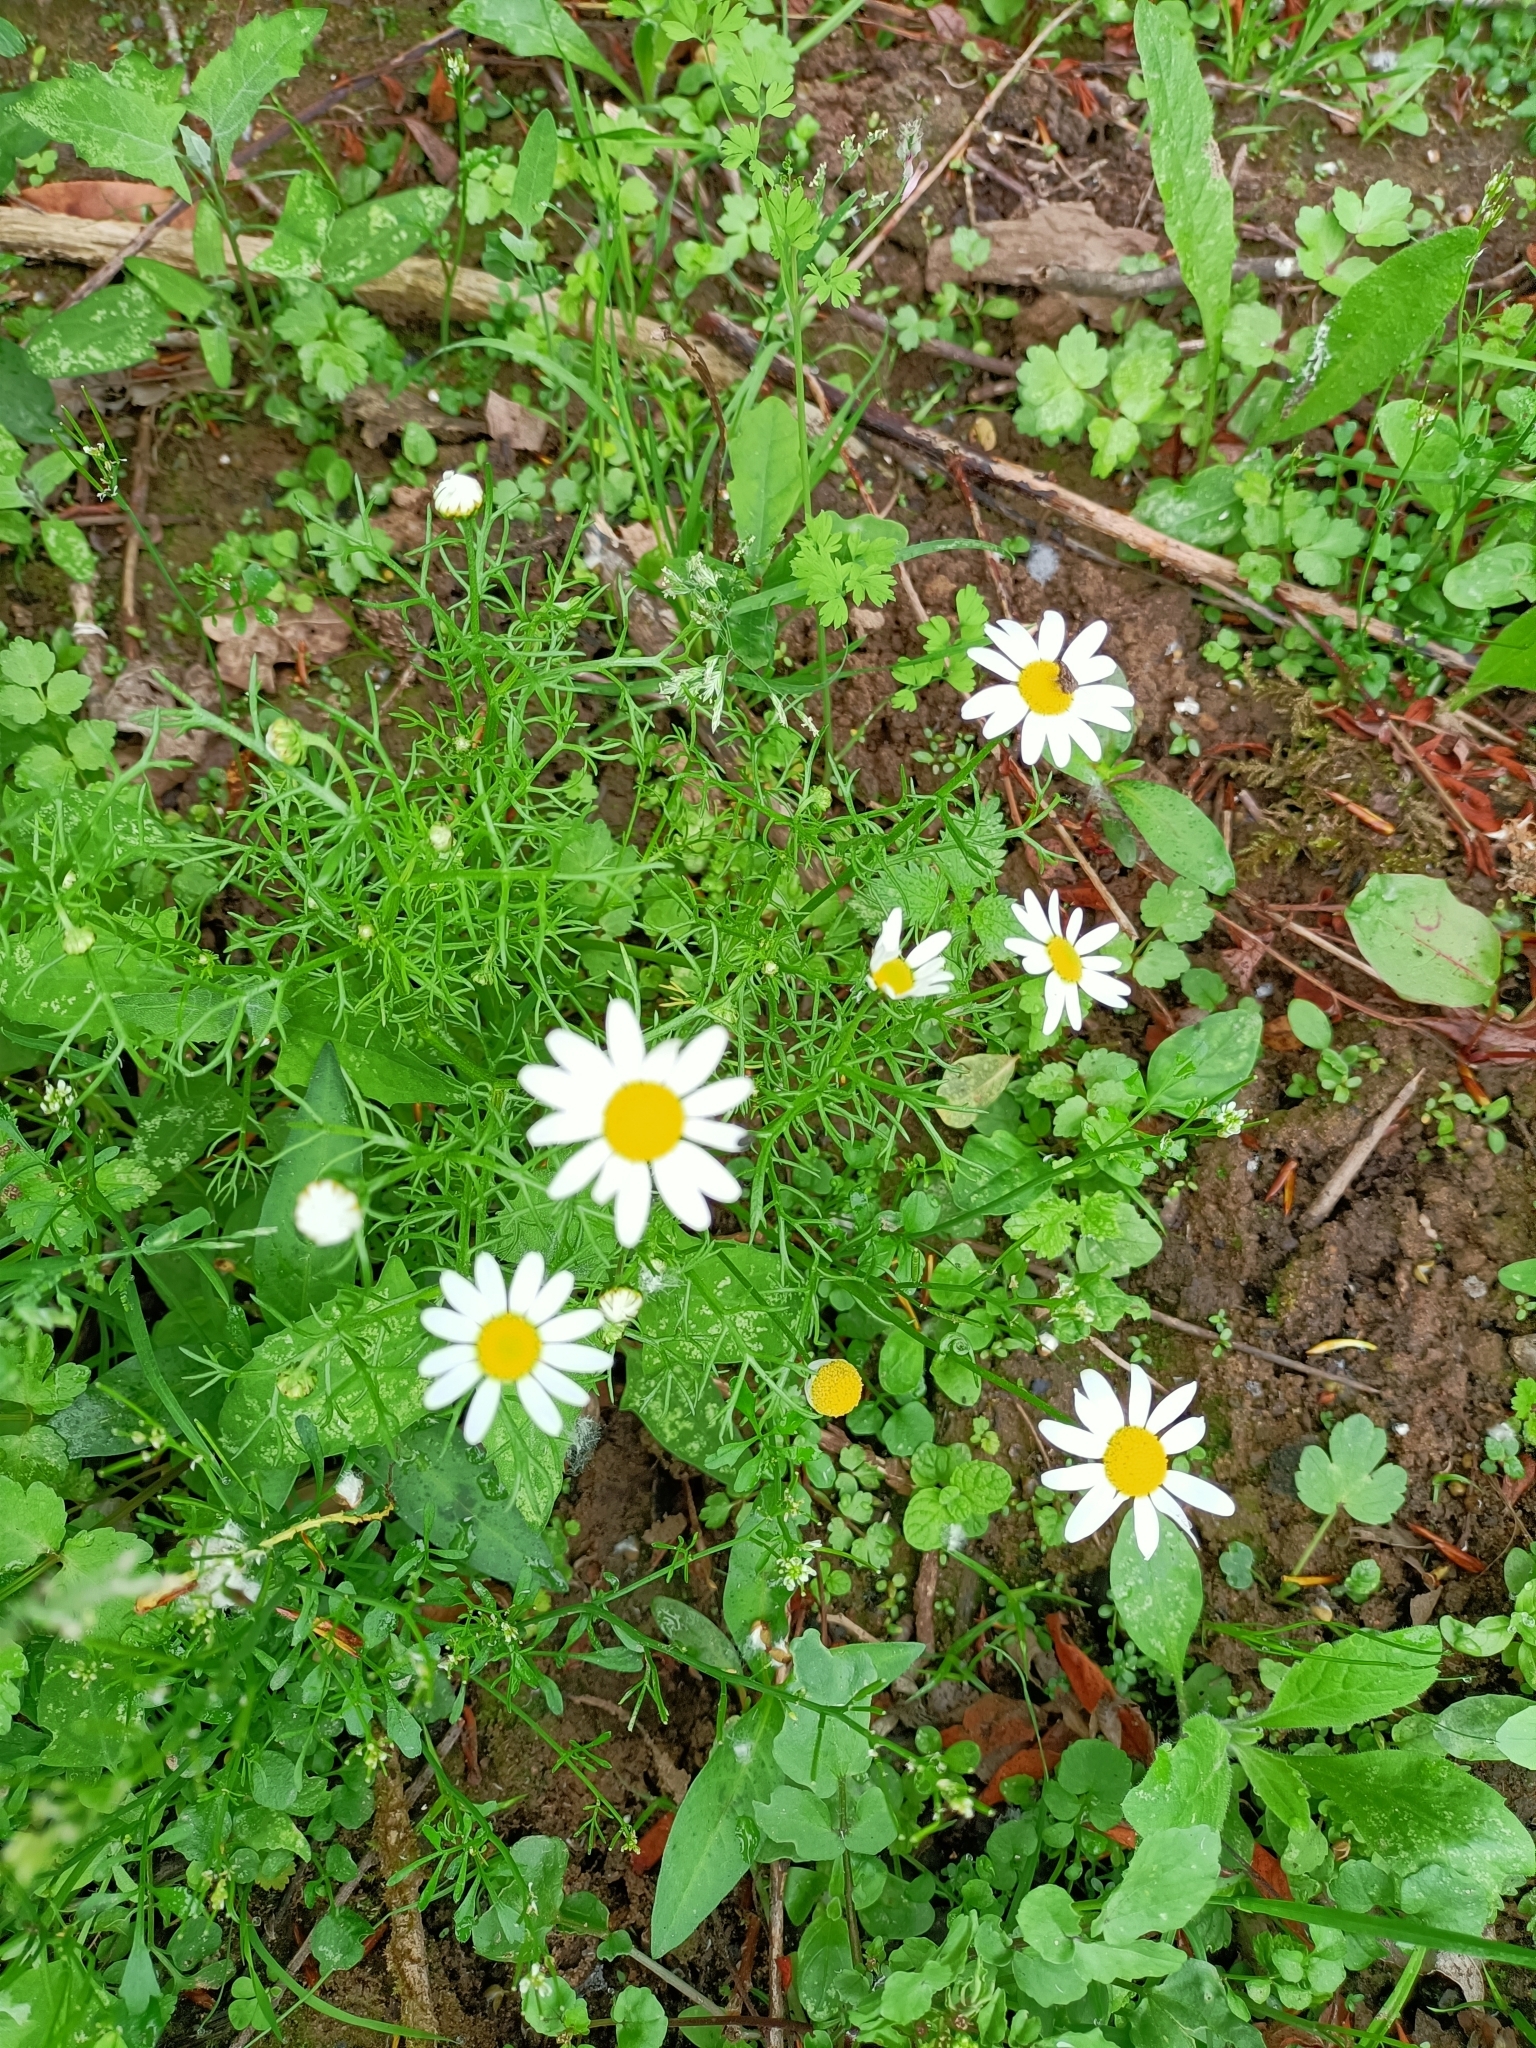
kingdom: Plantae
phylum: Tracheophyta
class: Magnoliopsida
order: Asterales
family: Asteraceae
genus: Chamaemelum
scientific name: Chamaemelum fuscatum
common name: Chamomile
